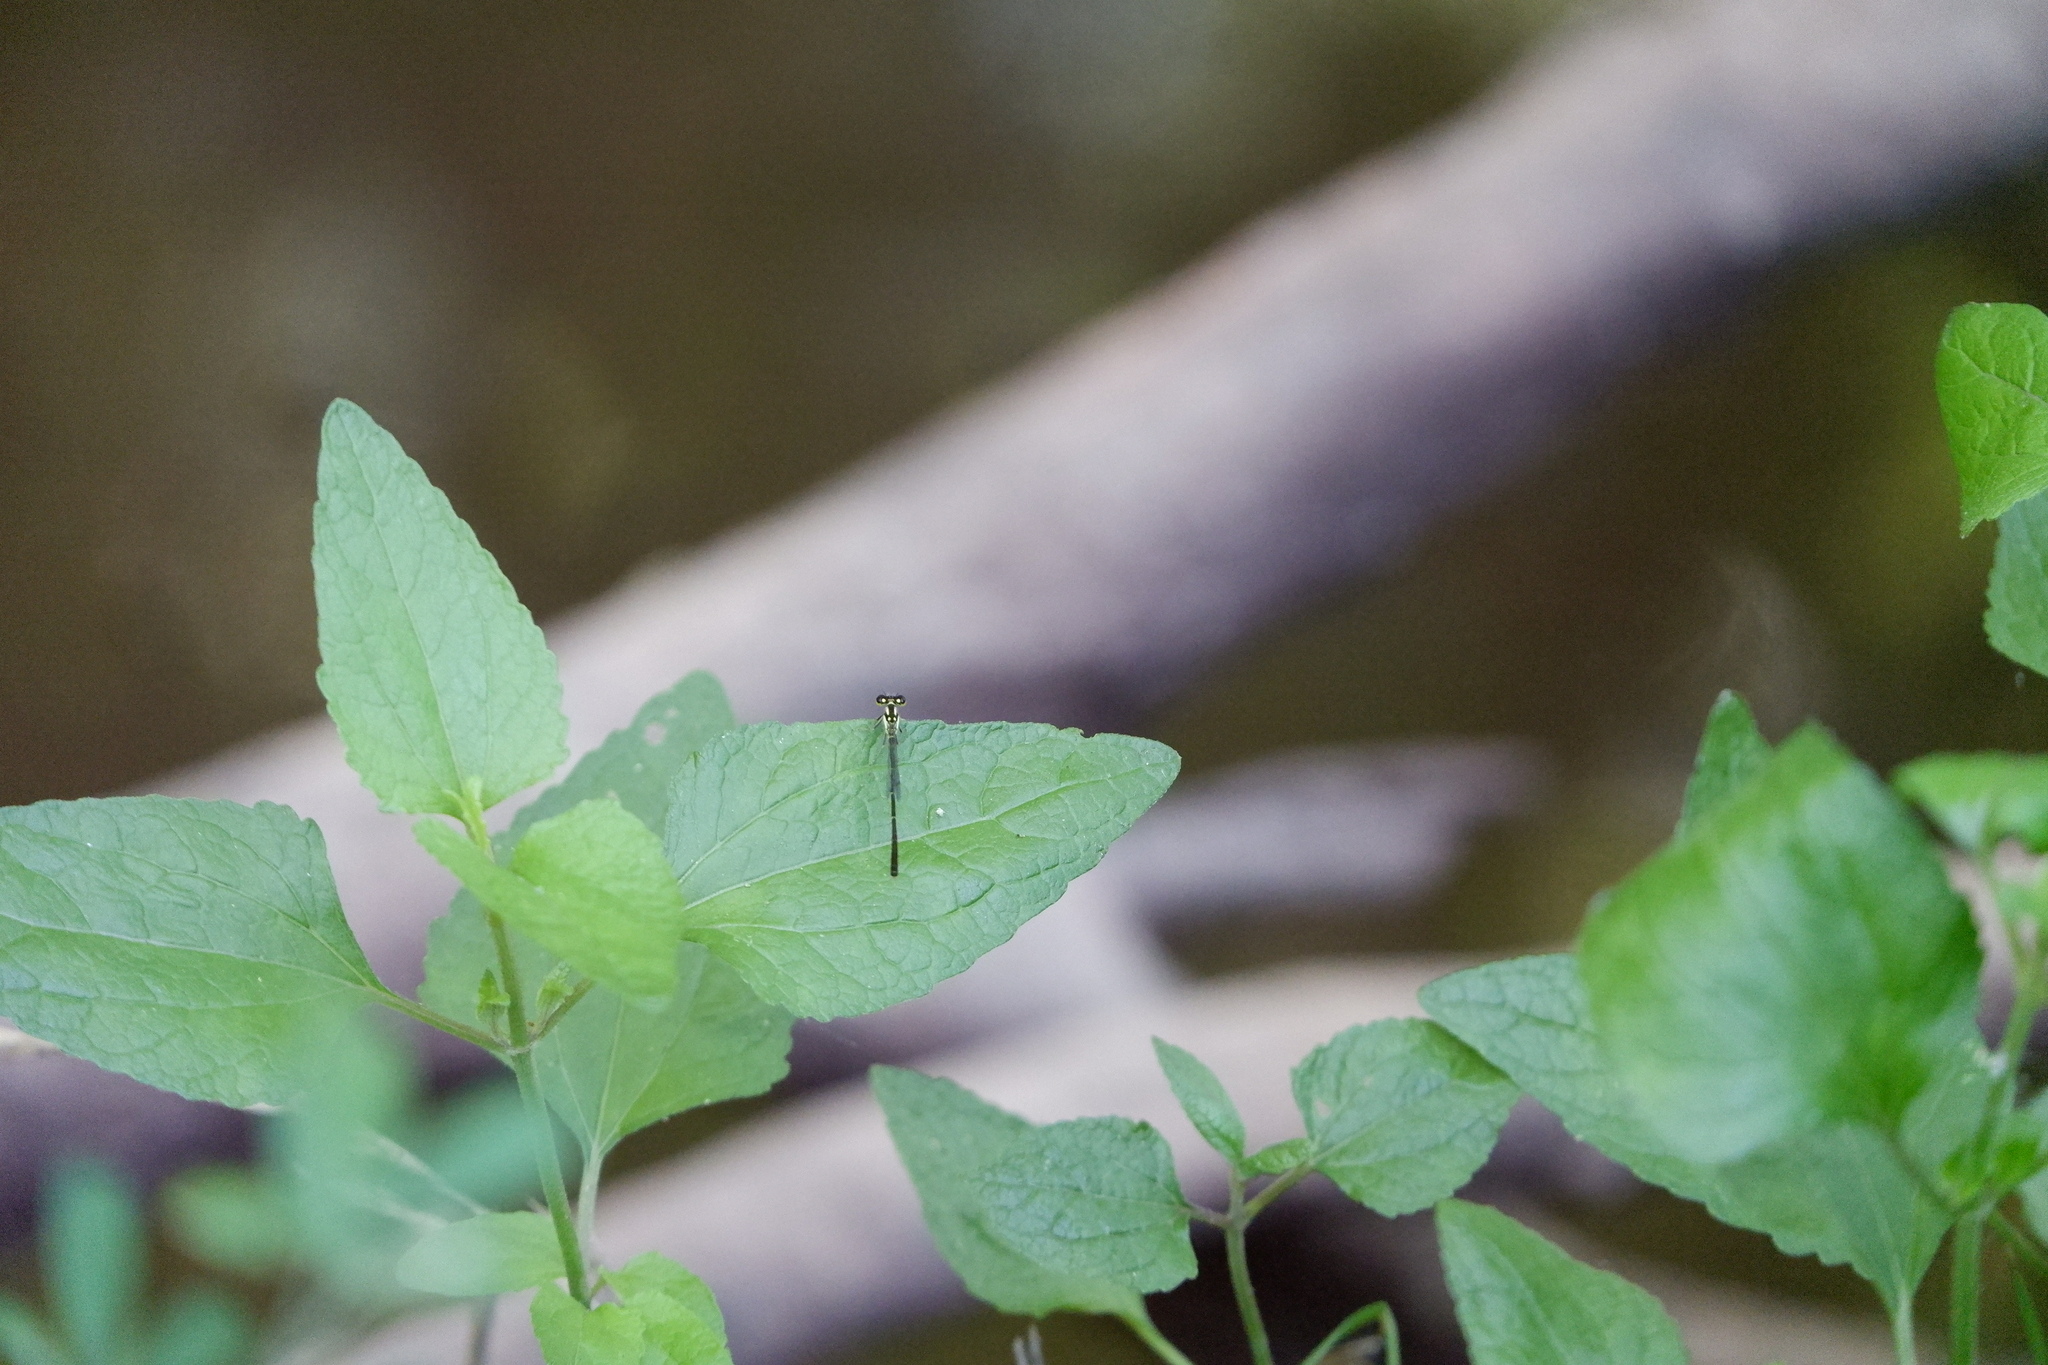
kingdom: Animalia
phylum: Arthropoda
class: Insecta
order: Odonata
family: Coenagrionidae
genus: Ischnura
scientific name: Ischnura posita
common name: Fragile forktail
